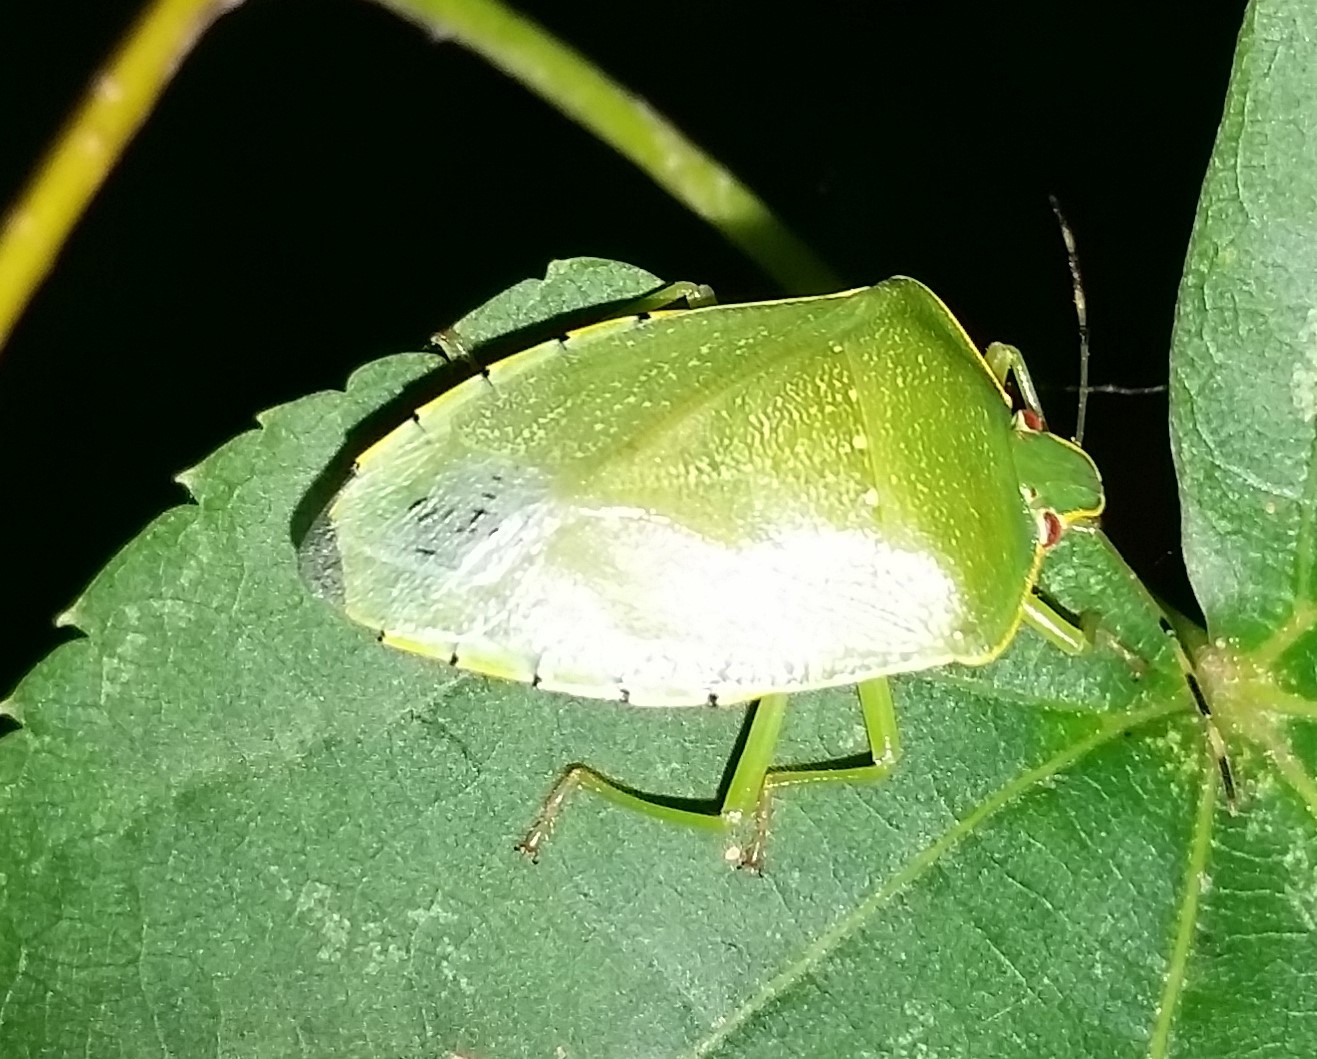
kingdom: Animalia
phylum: Arthropoda
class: Insecta
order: Hemiptera
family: Pentatomidae
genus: Chinavia
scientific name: Chinavia hilaris
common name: Green stink bug
